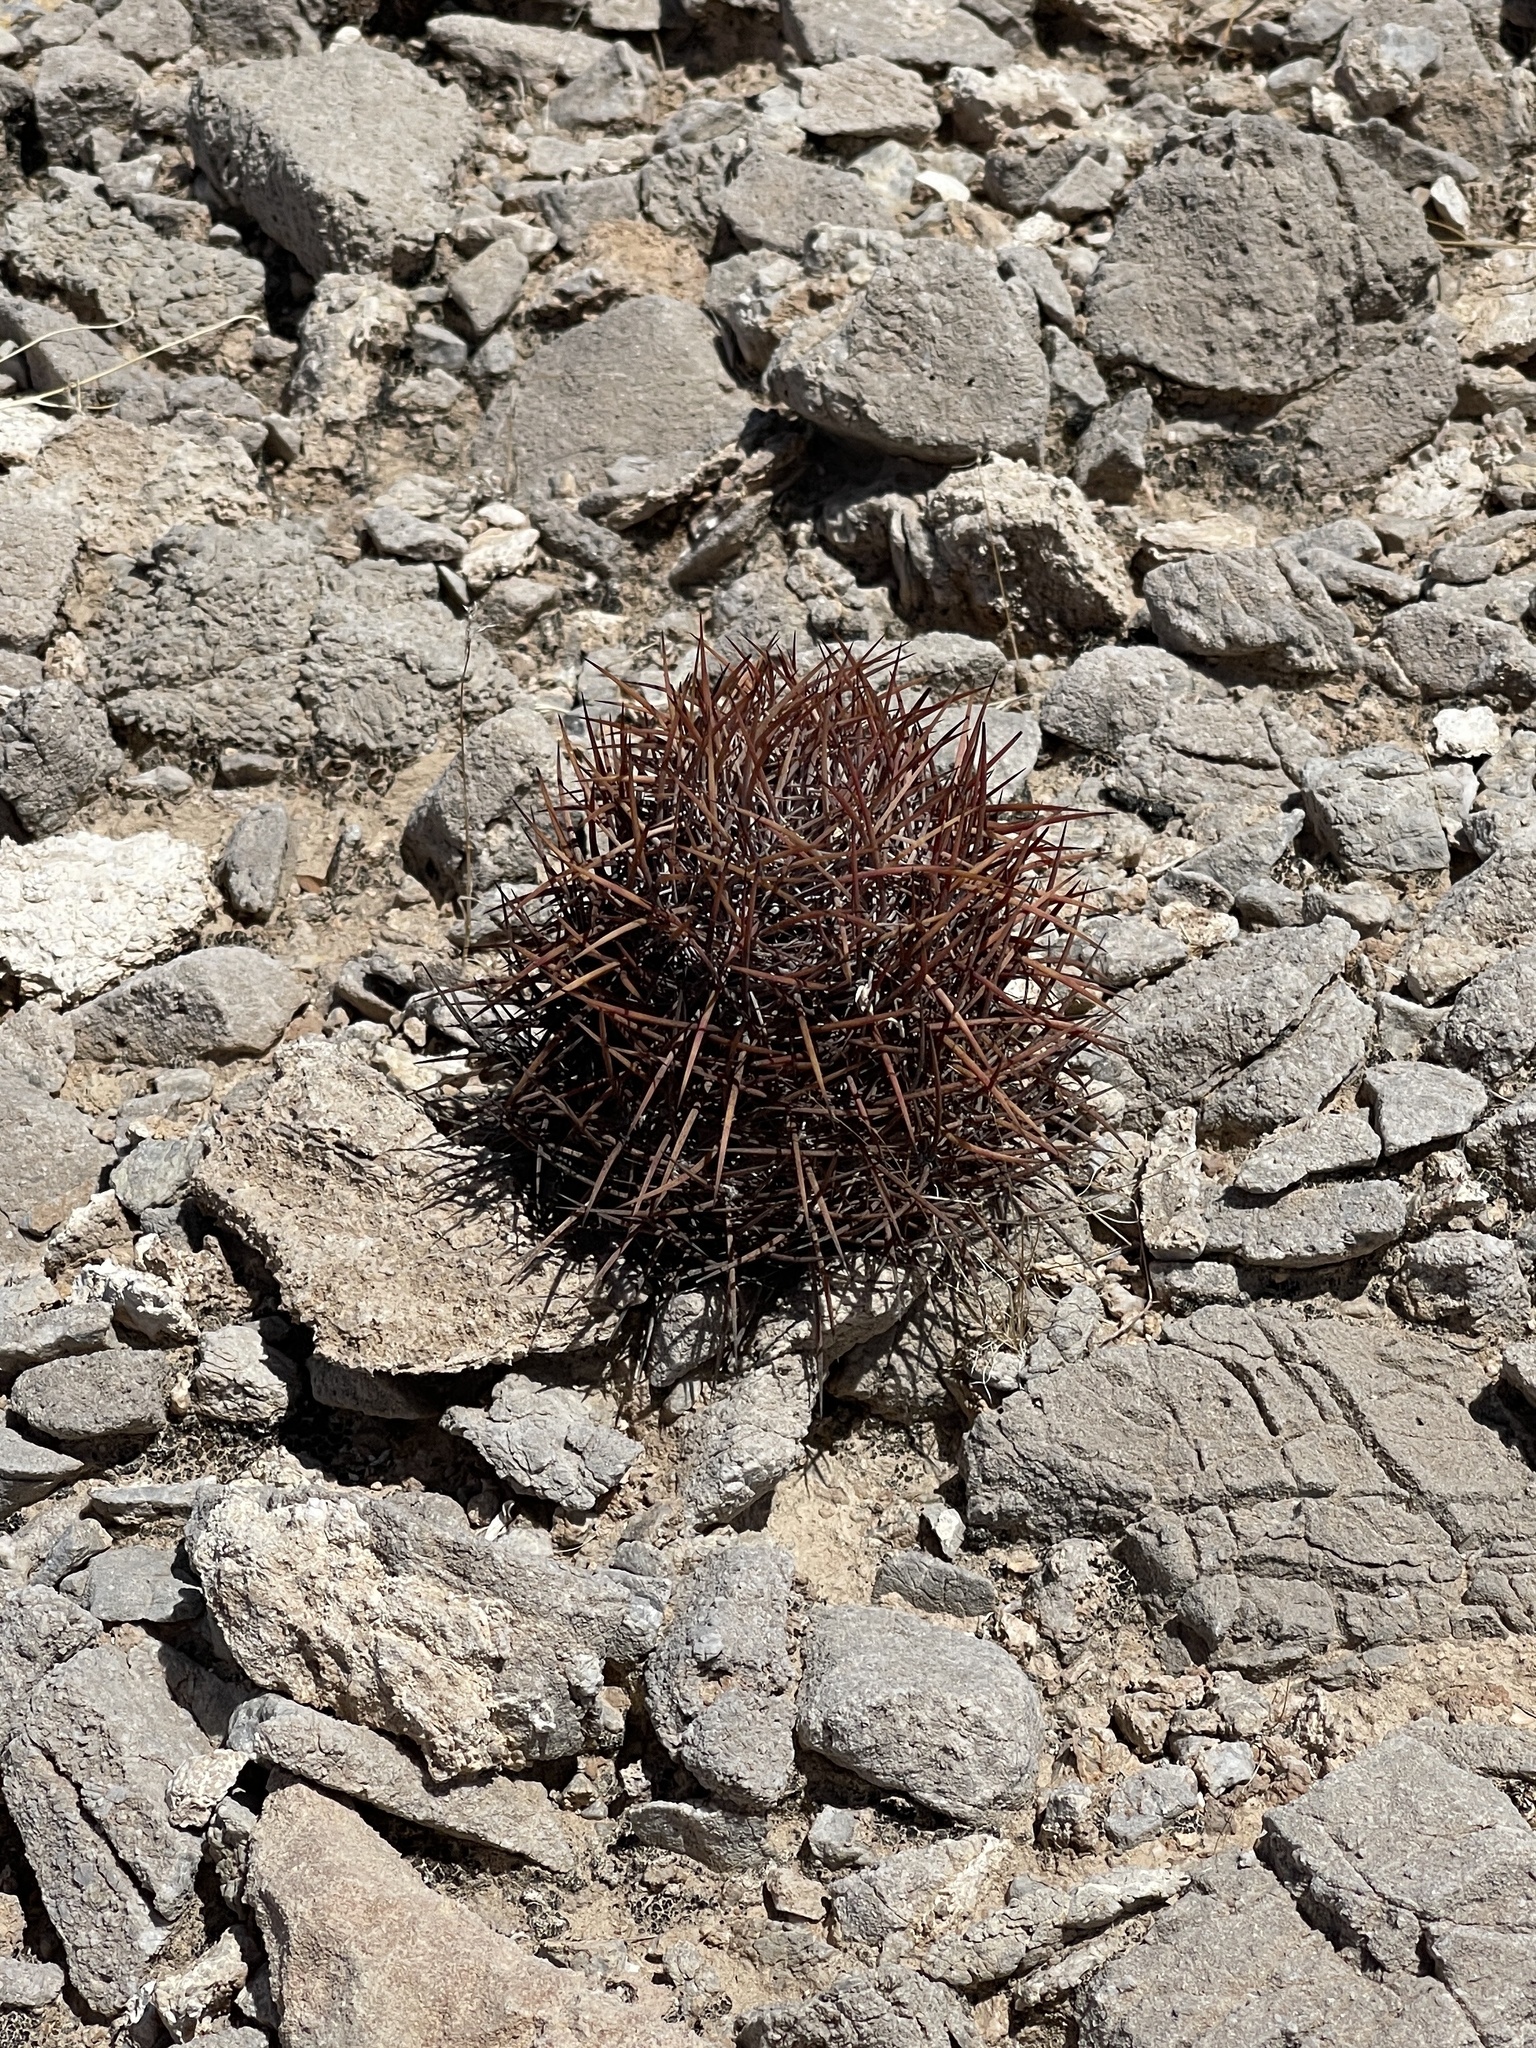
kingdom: Plantae
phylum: Tracheophyta
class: Magnoliopsida
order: Caryophyllales
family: Cactaceae
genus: Sclerocactus
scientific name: Sclerocactus johnsonii
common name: Eight-spine fishhook cactus
